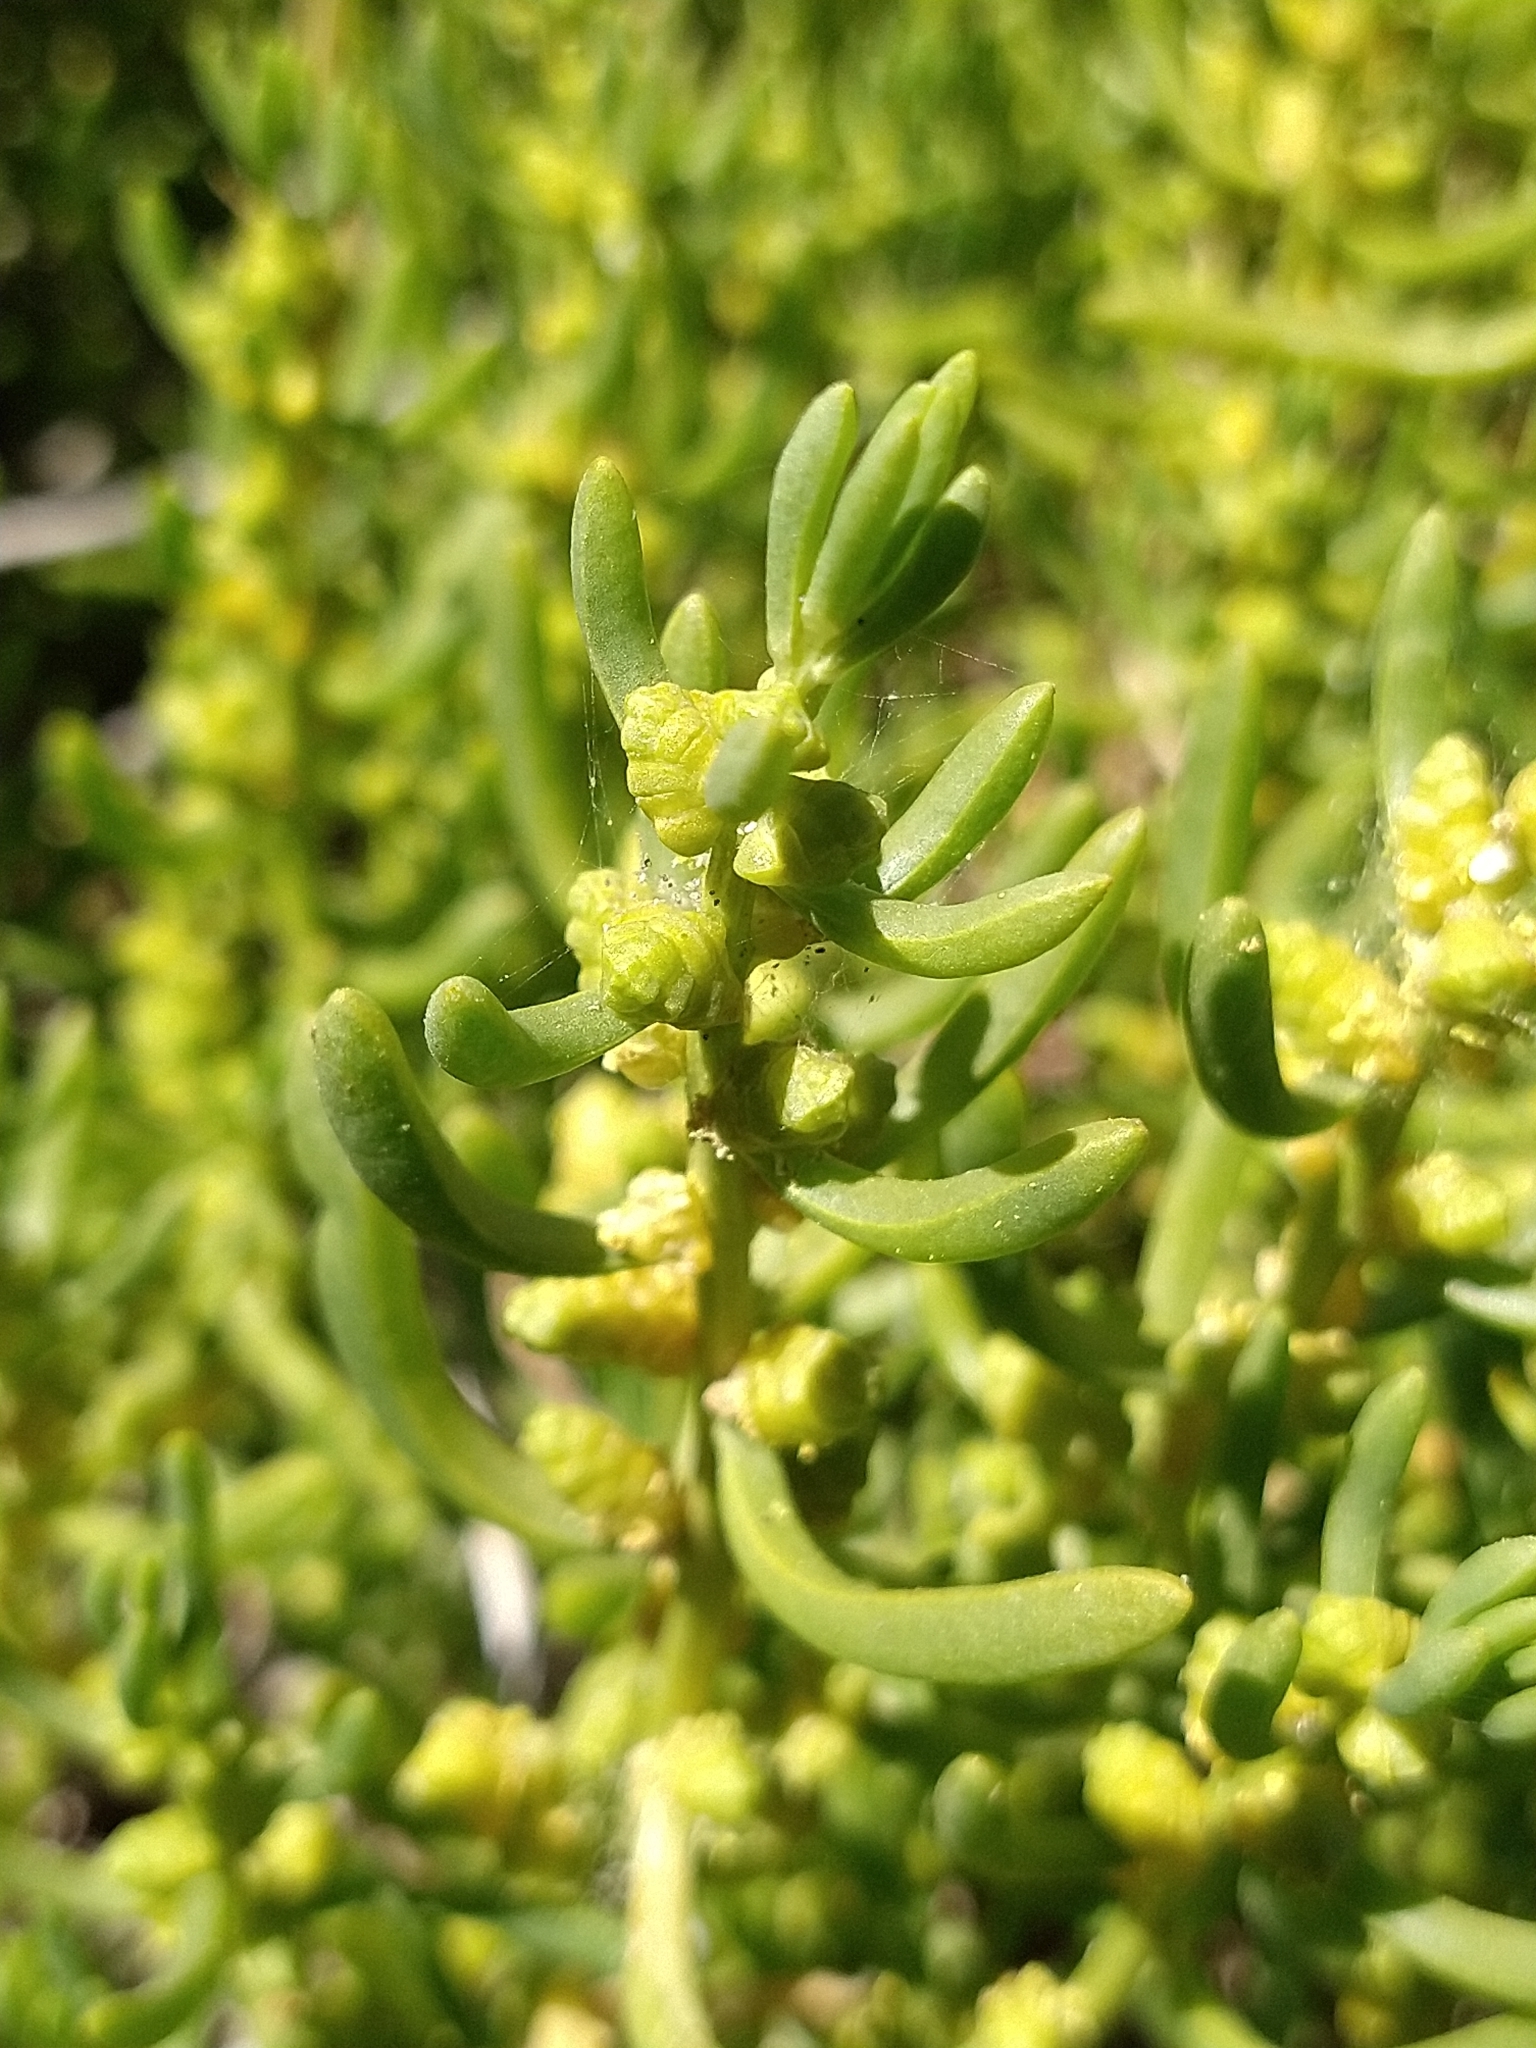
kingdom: Plantae
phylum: Tracheophyta
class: Magnoliopsida
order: Brassicales
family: Bataceae
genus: Batis
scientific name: Batis maritima
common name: Turtleweed
